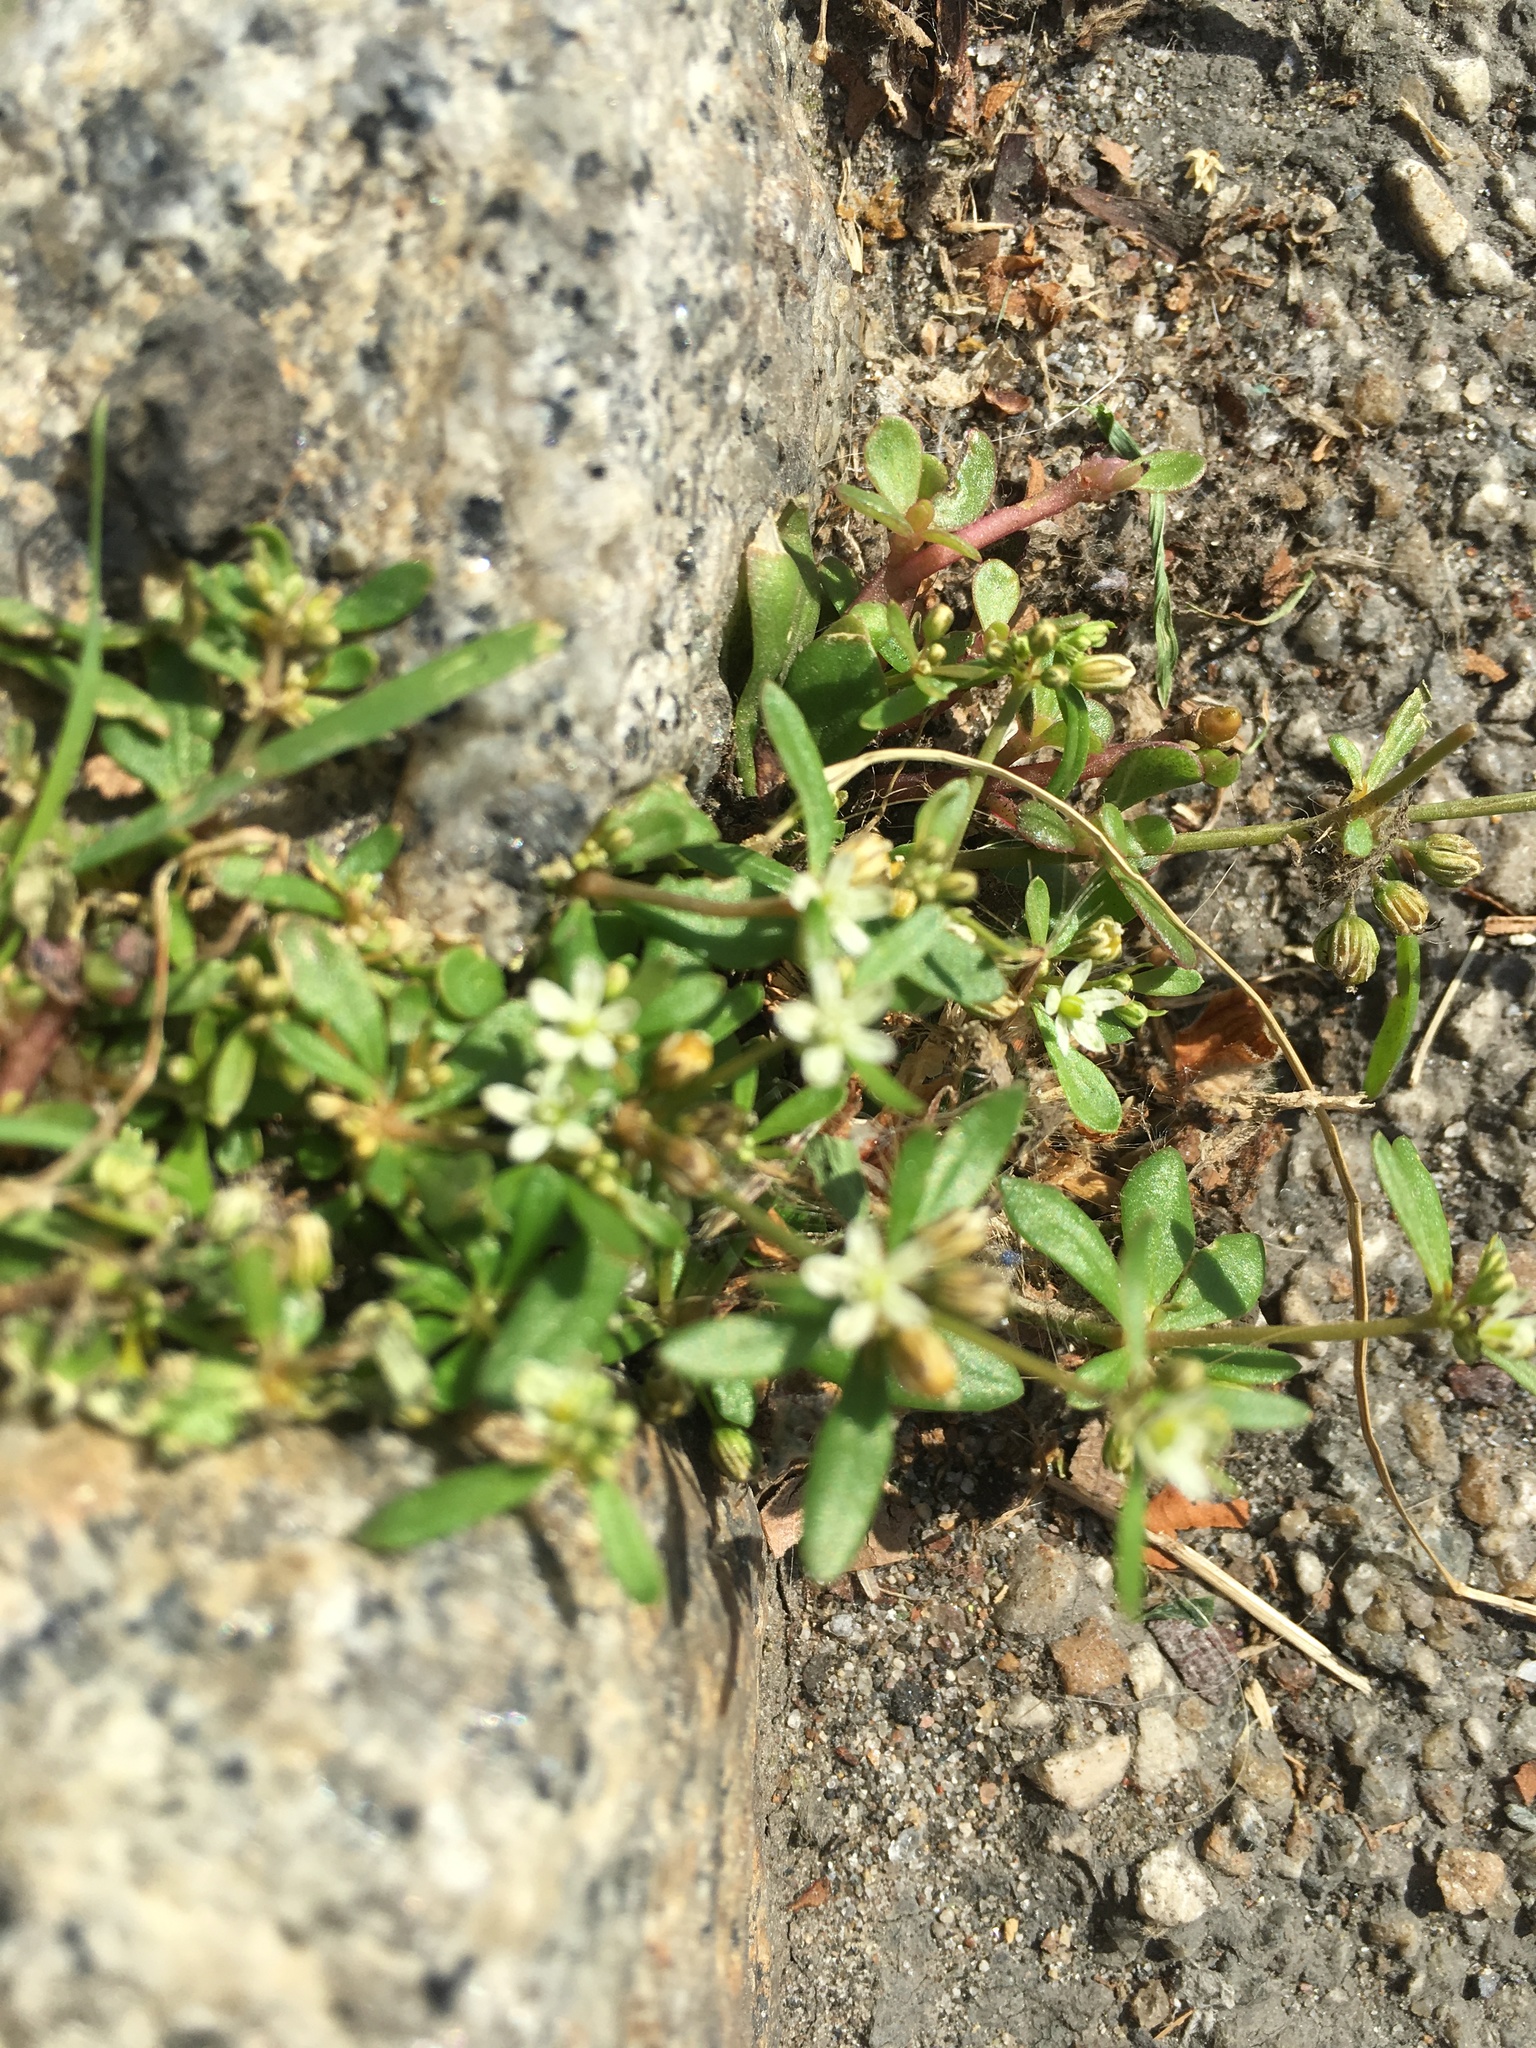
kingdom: Plantae
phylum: Tracheophyta
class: Magnoliopsida
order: Caryophyllales
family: Molluginaceae
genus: Mollugo
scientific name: Mollugo verticillata
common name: Green carpetweed
